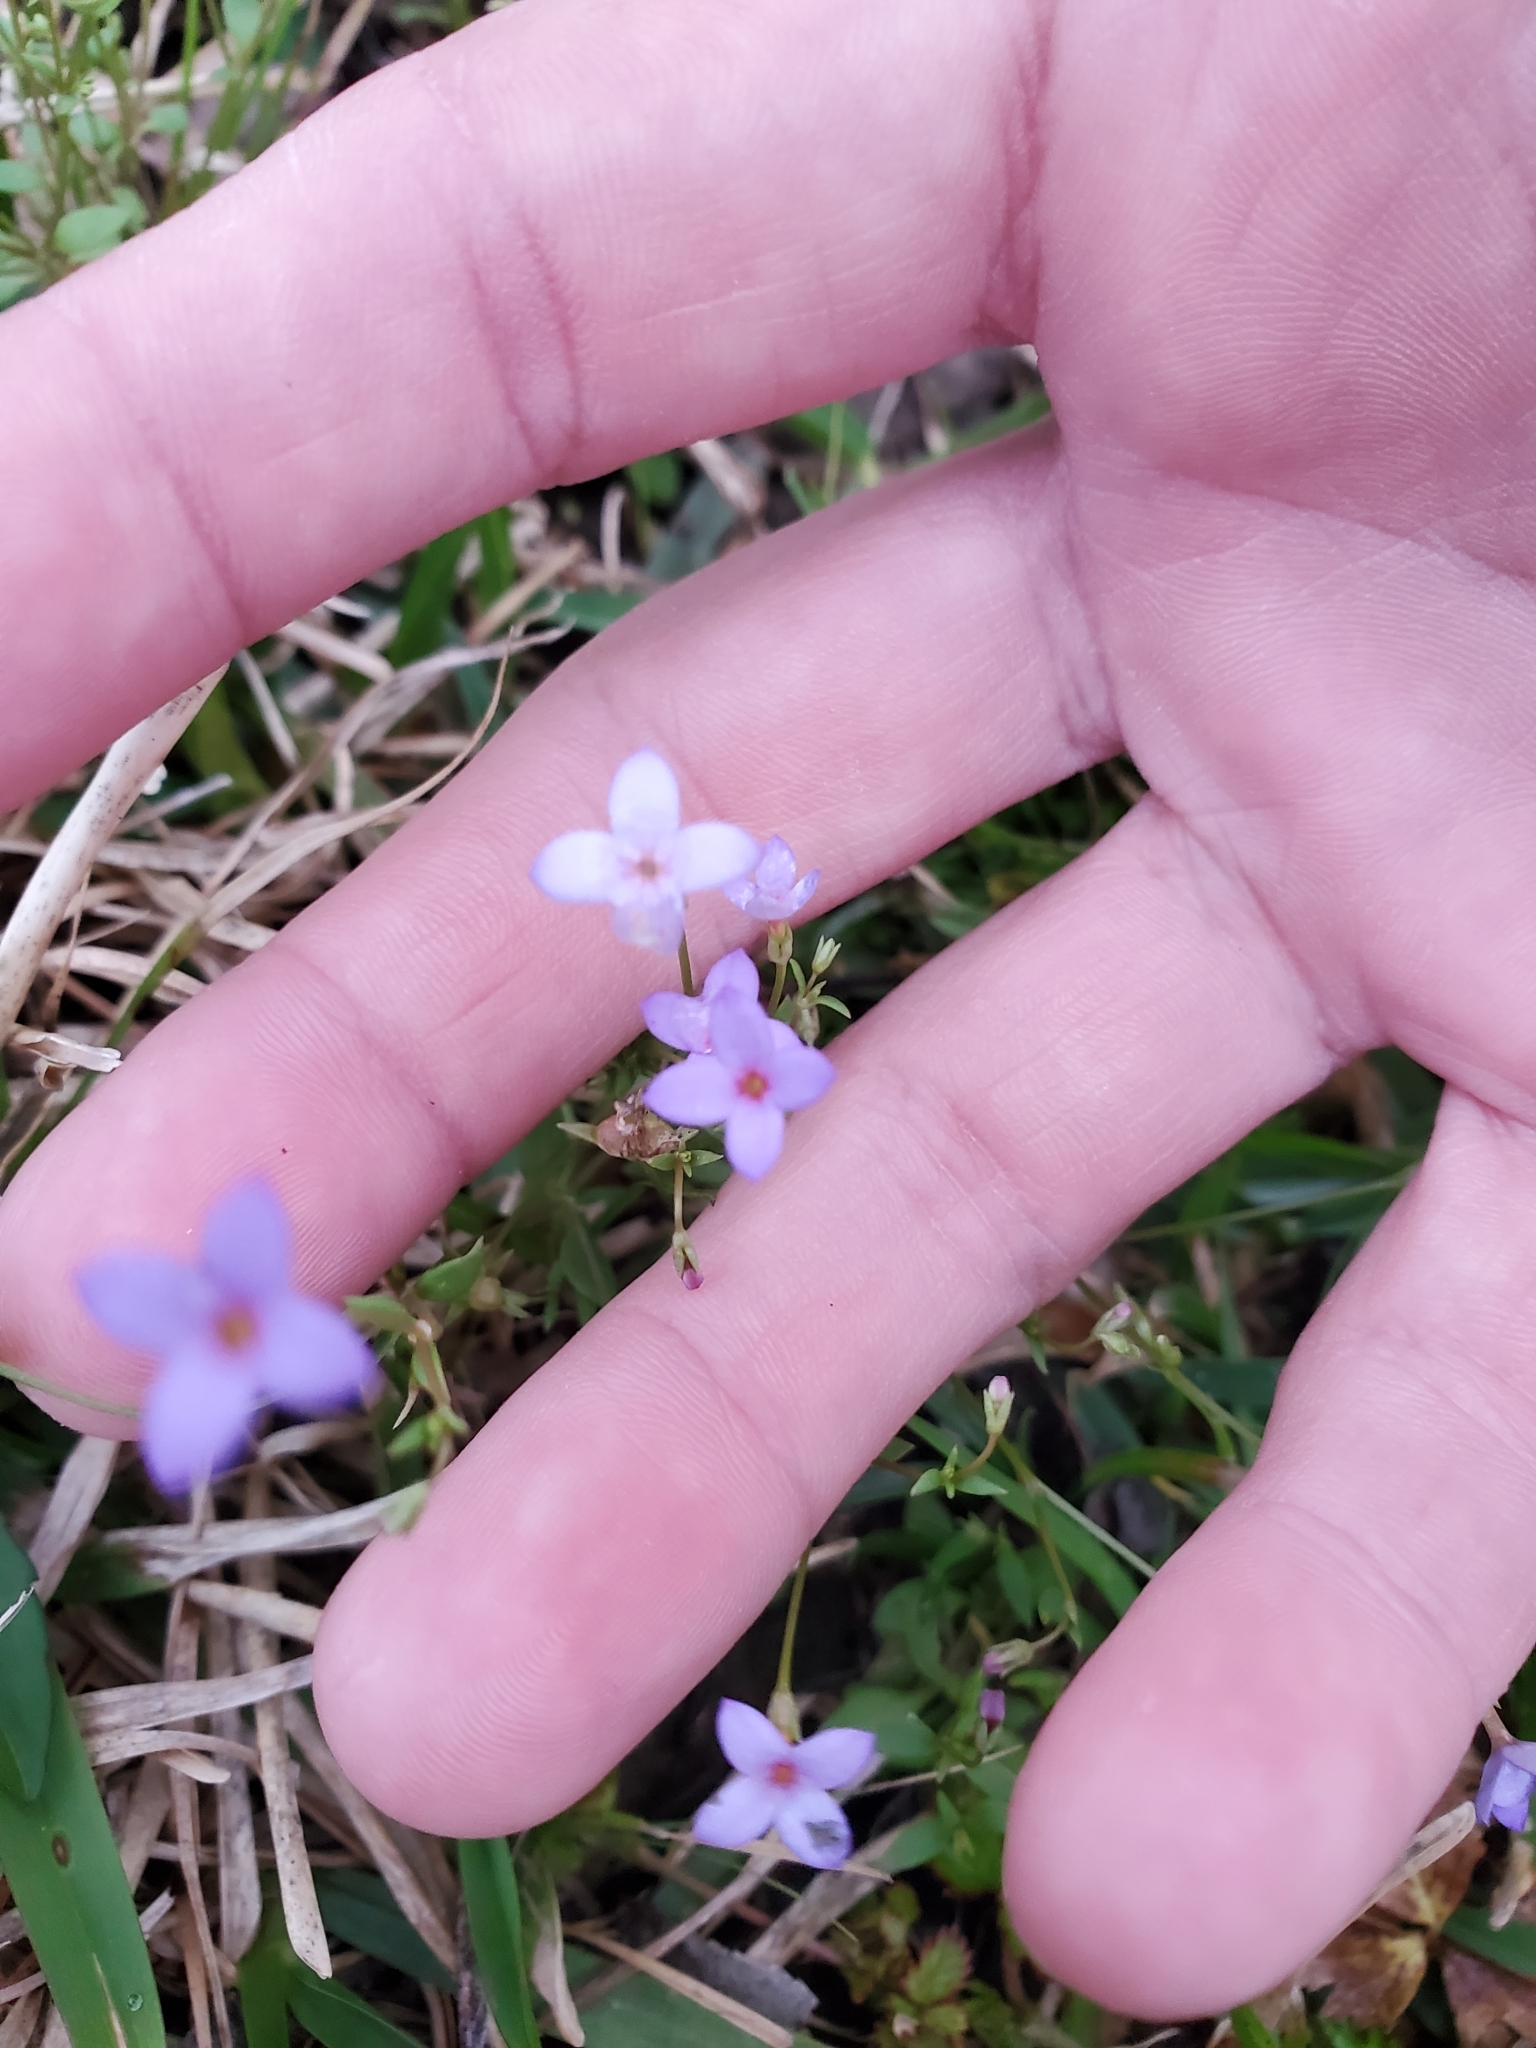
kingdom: Plantae
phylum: Tracheophyta
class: Magnoliopsida
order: Gentianales
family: Rubiaceae
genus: Houstonia
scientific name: Houstonia pusilla
